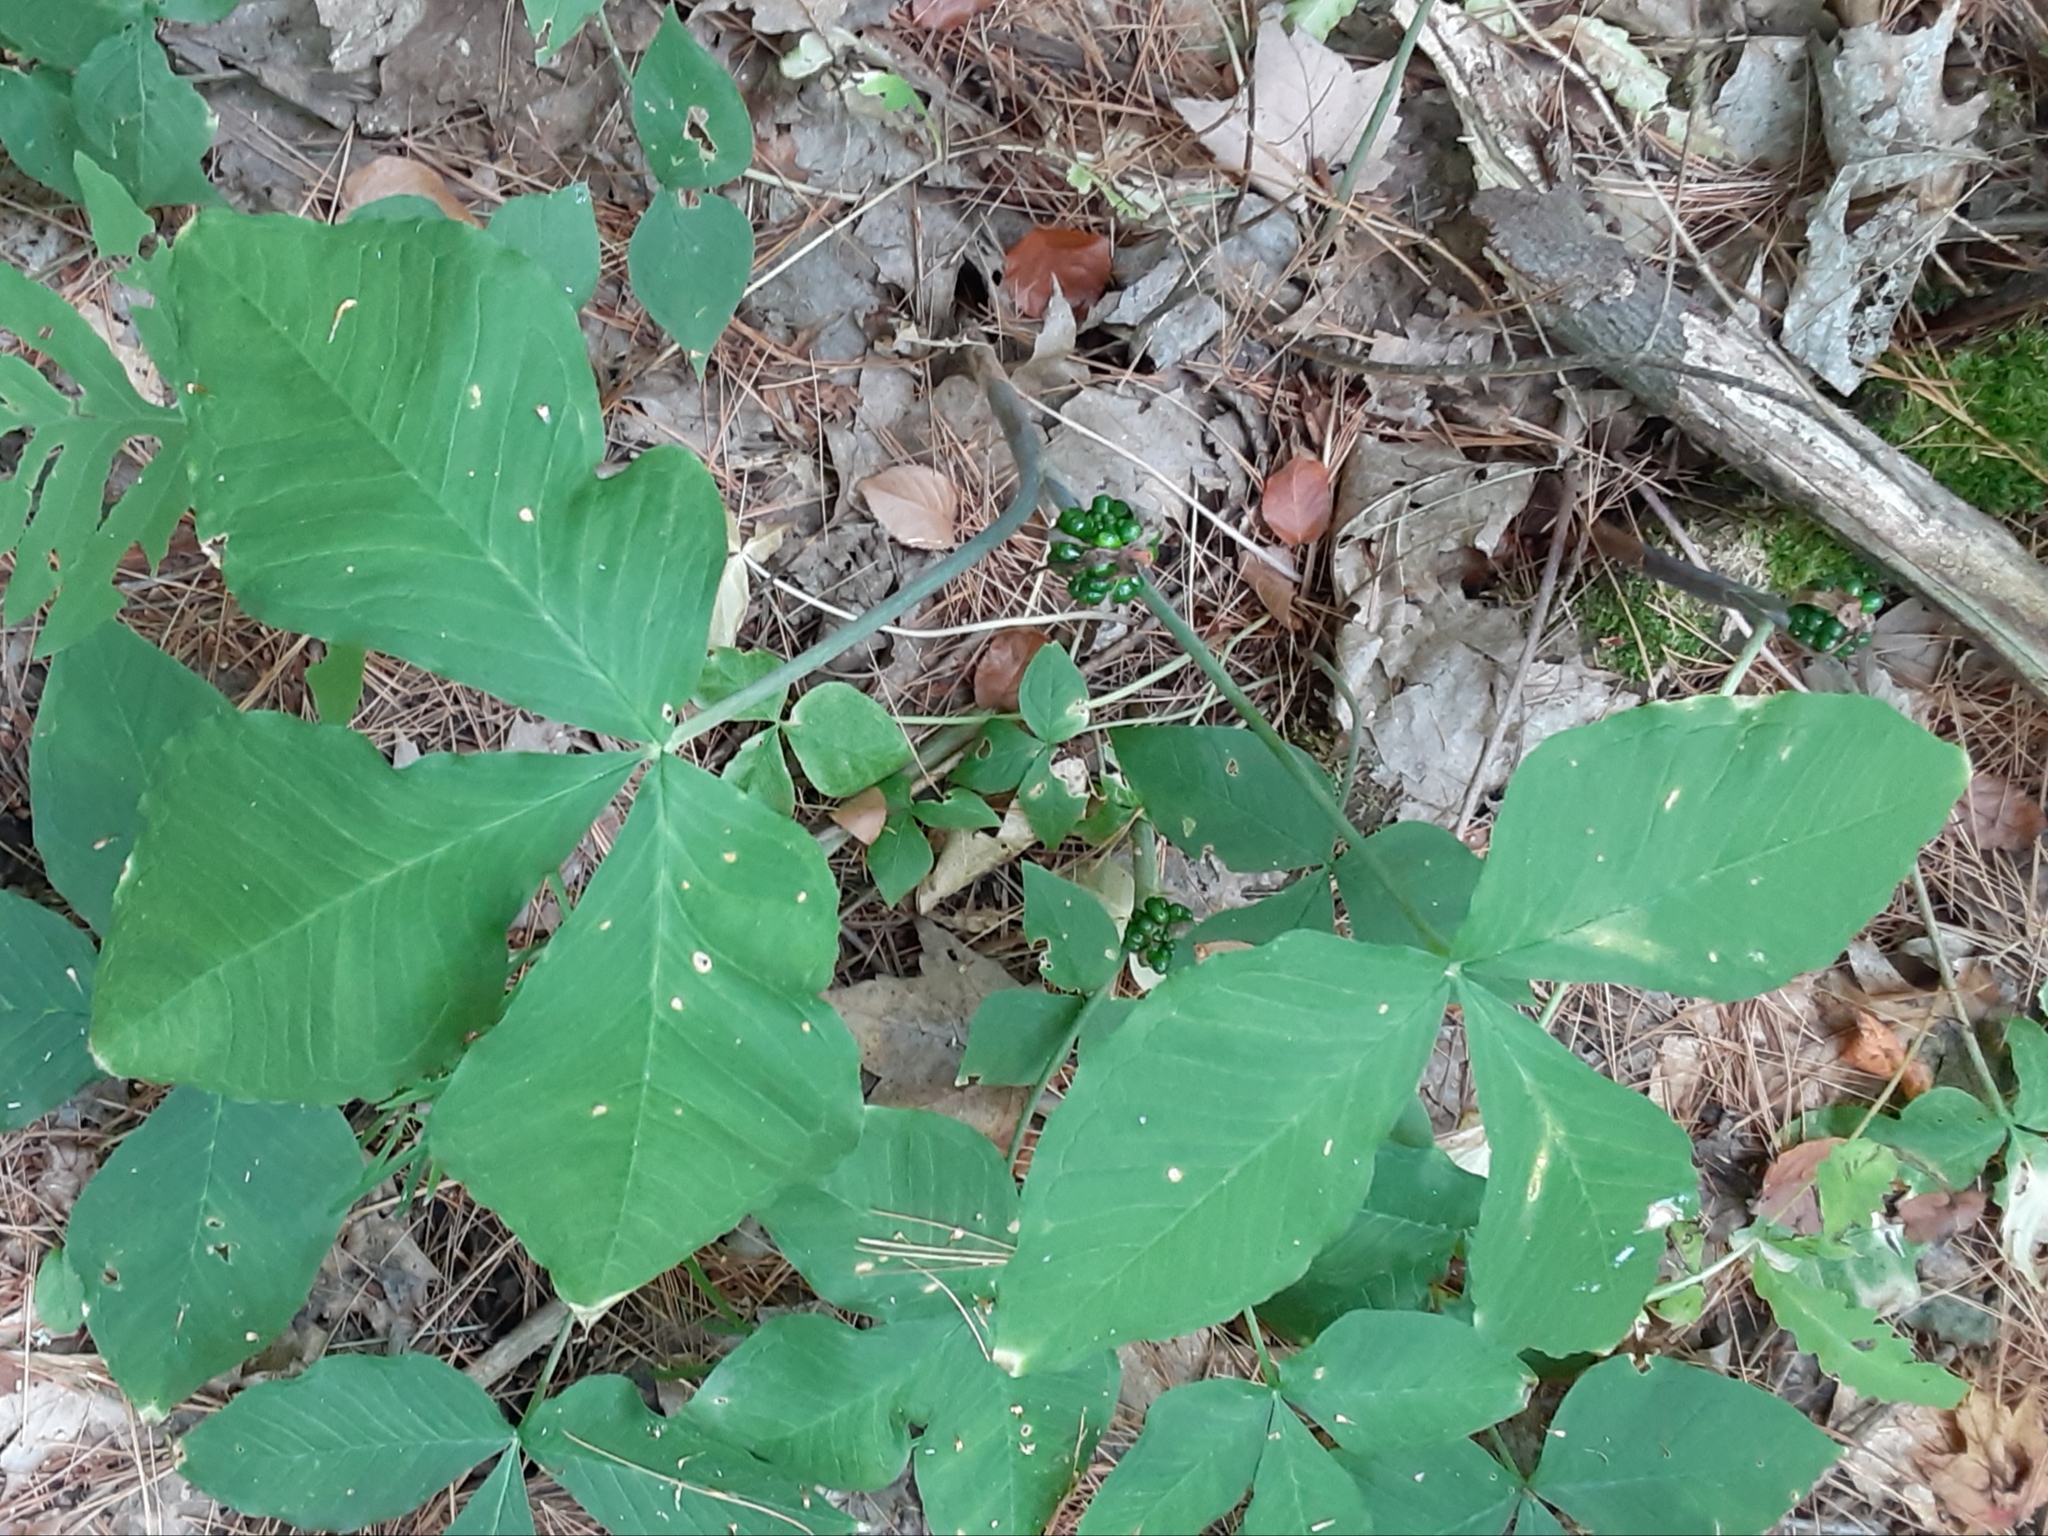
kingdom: Plantae
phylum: Tracheophyta
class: Liliopsida
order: Alismatales
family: Araceae
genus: Arisaema
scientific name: Arisaema triphyllum
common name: Jack-in-the-pulpit
